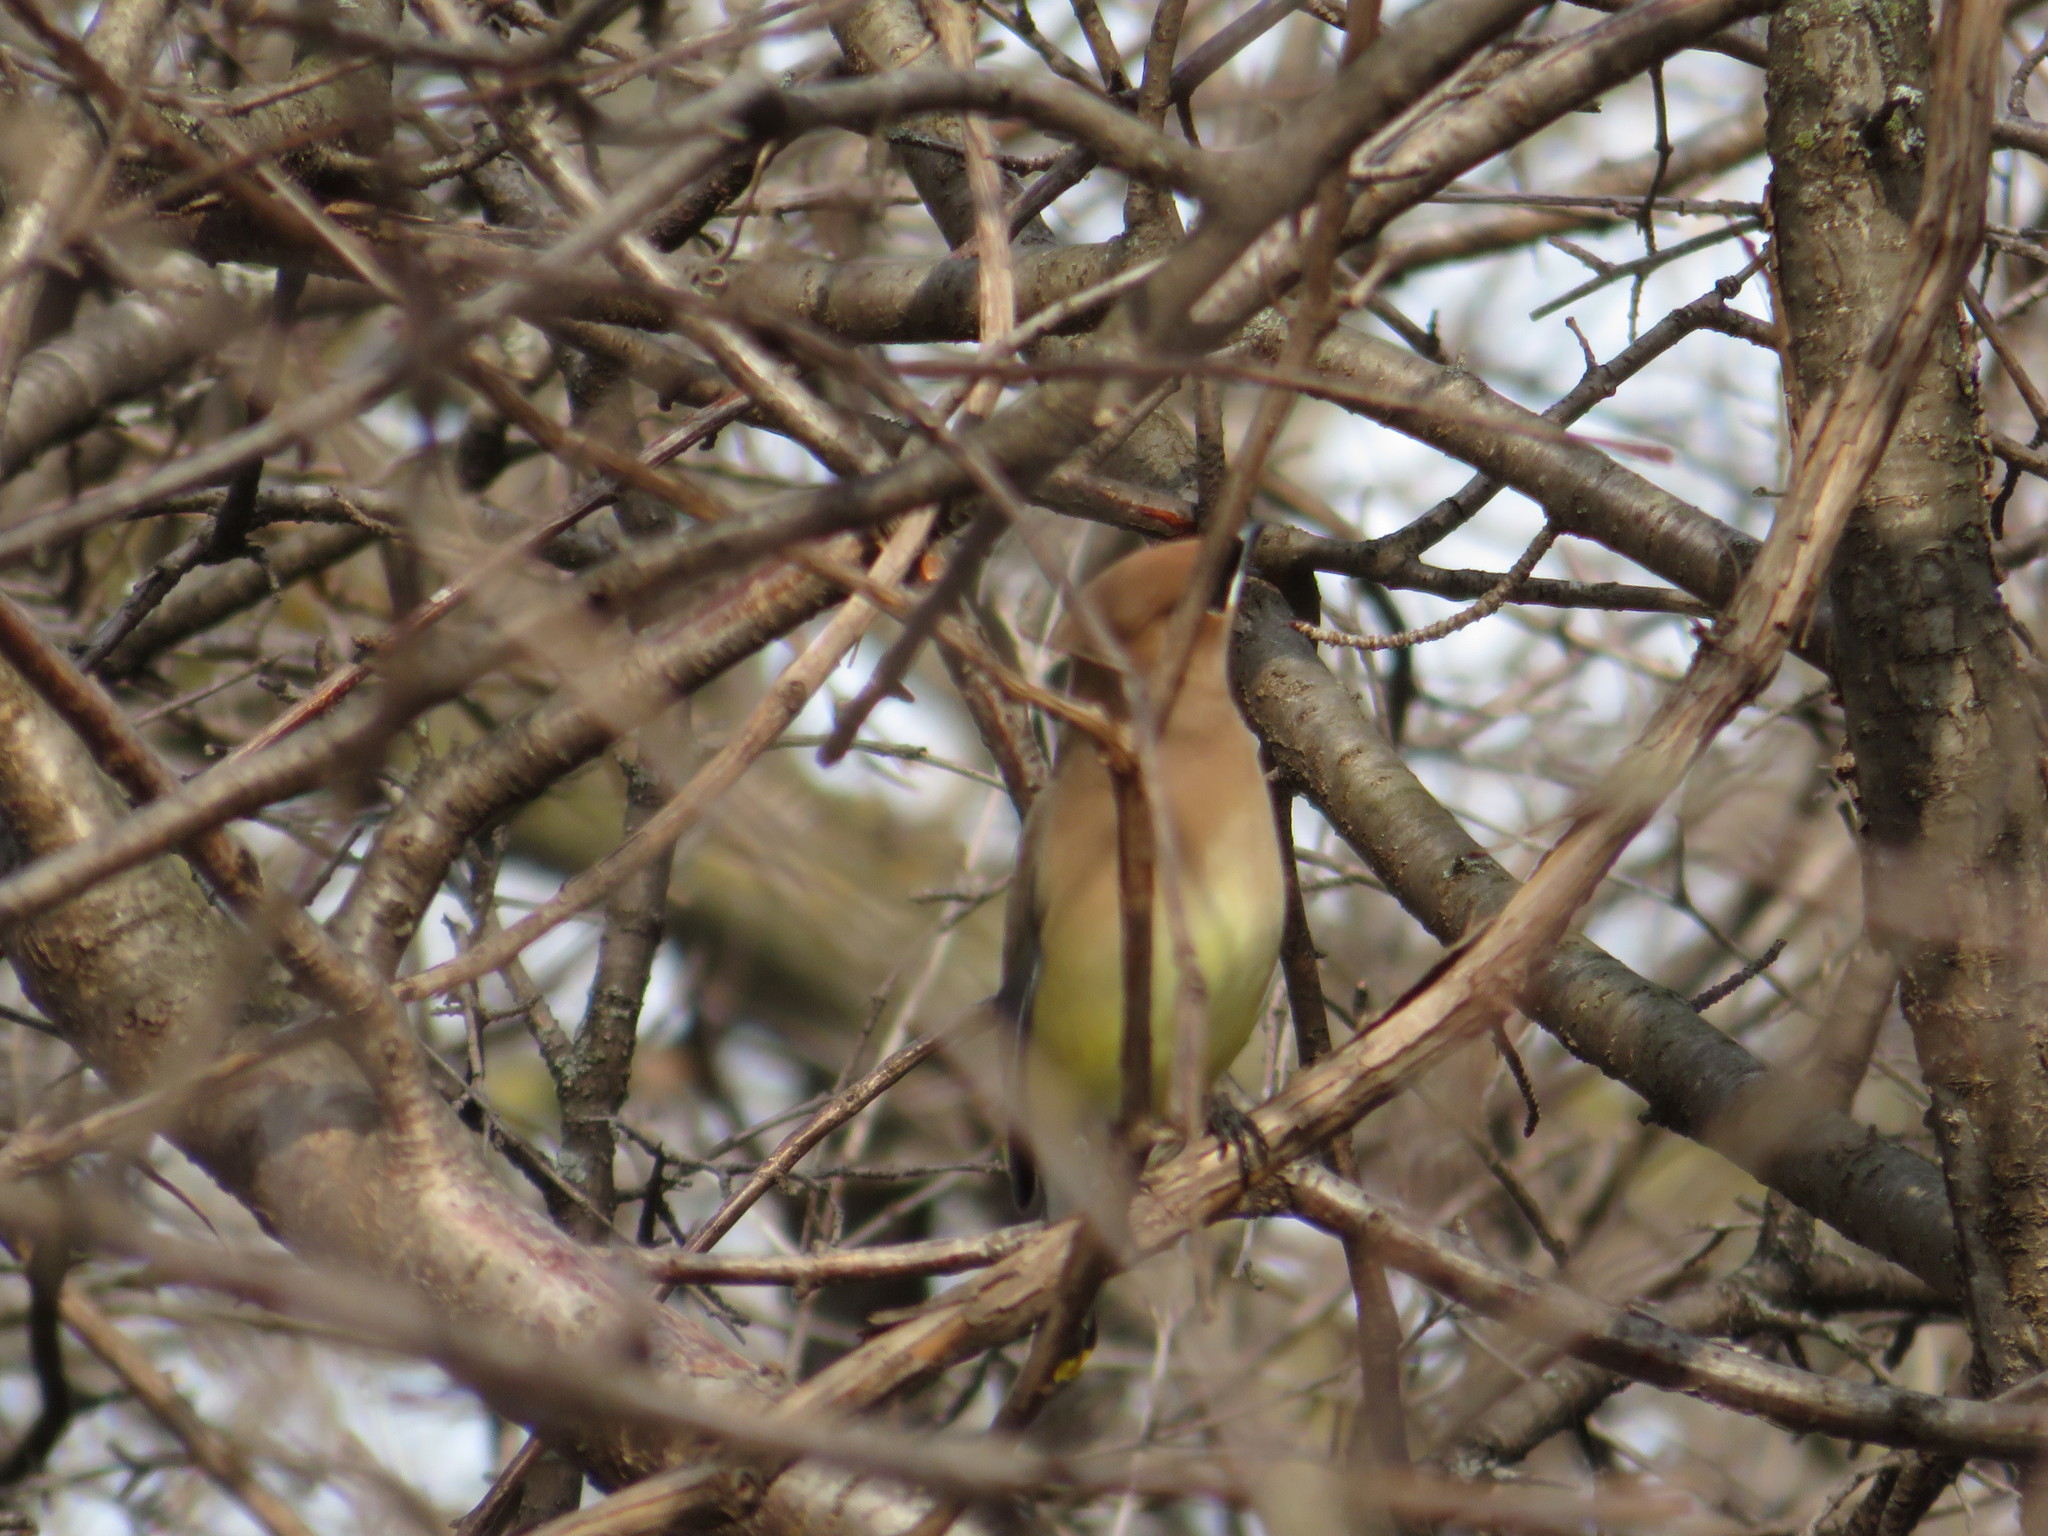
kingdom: Animalia
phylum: Chordata
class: Aves
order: Passeriformes
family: Bombycillidae
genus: Bombycilla
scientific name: Bombycilla cedrorum
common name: Cedar waxwing
